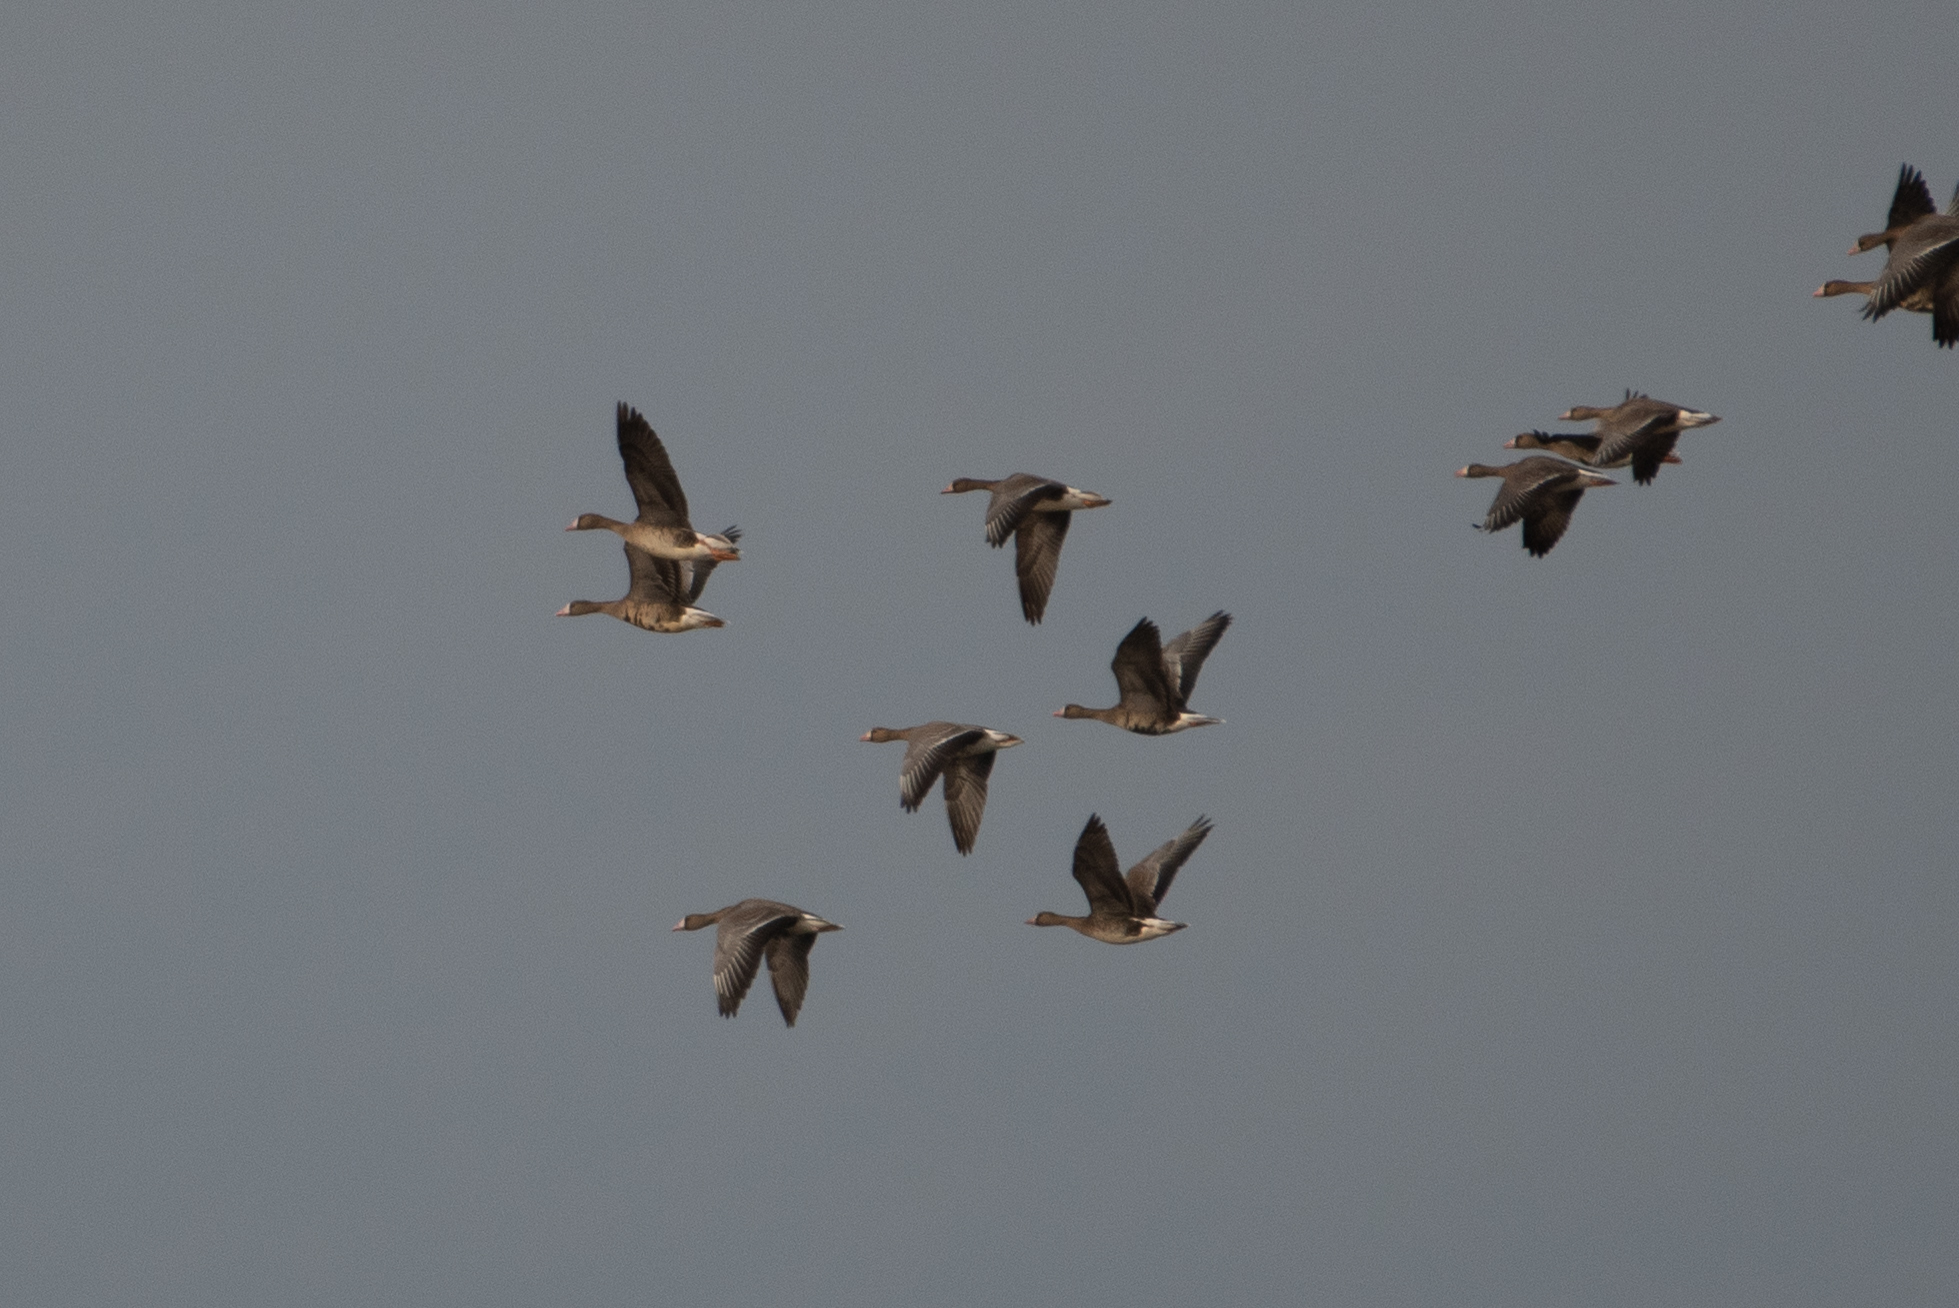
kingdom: Animalia
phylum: Chordata
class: Aves
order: Anseriformes
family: Anatidae
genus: Anser
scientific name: Anser albifrons
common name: Greater white-fronted goose
